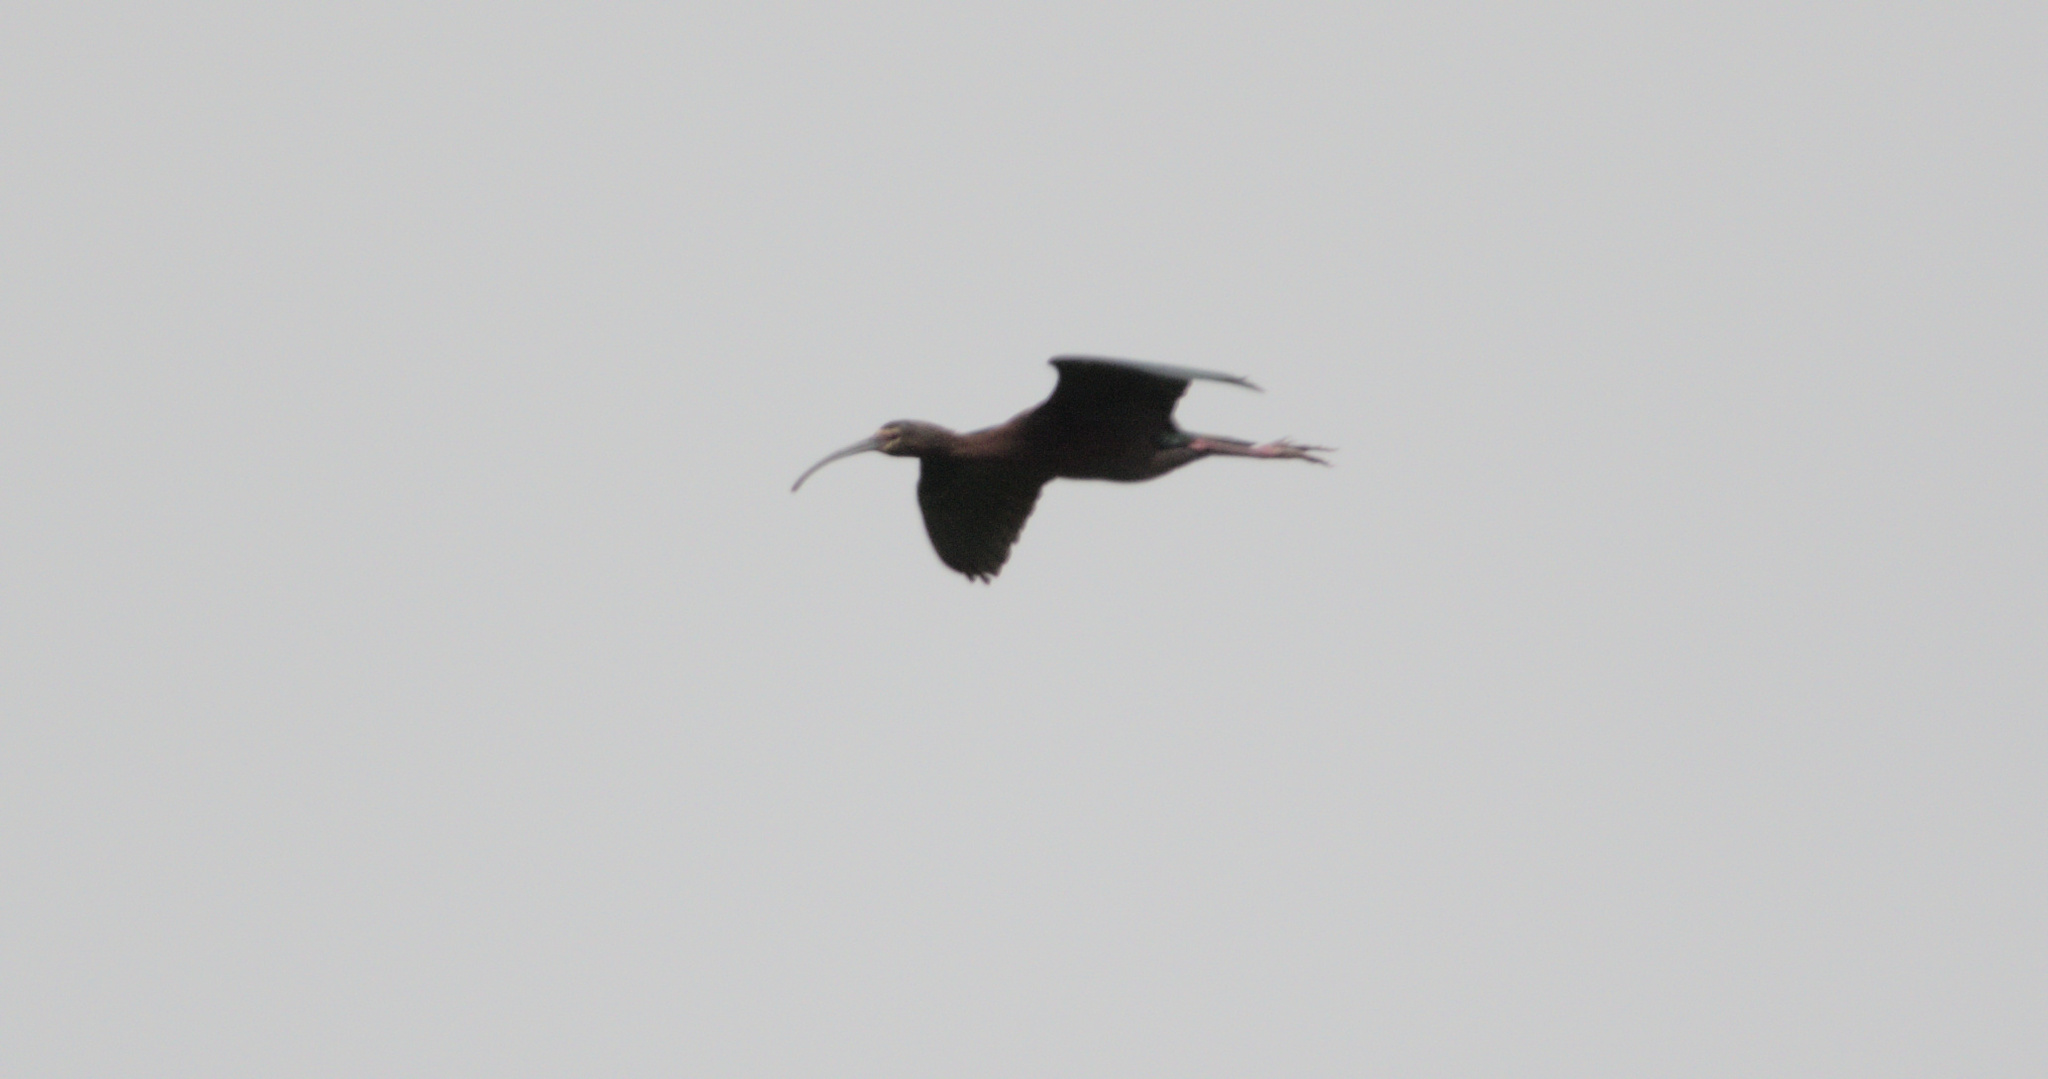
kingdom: Animalia
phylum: Chordata
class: Aves
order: Pelecaniformes
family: Threskiornithidae
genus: Plegadis
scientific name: Plegadis chihi
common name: White-faced ibis
